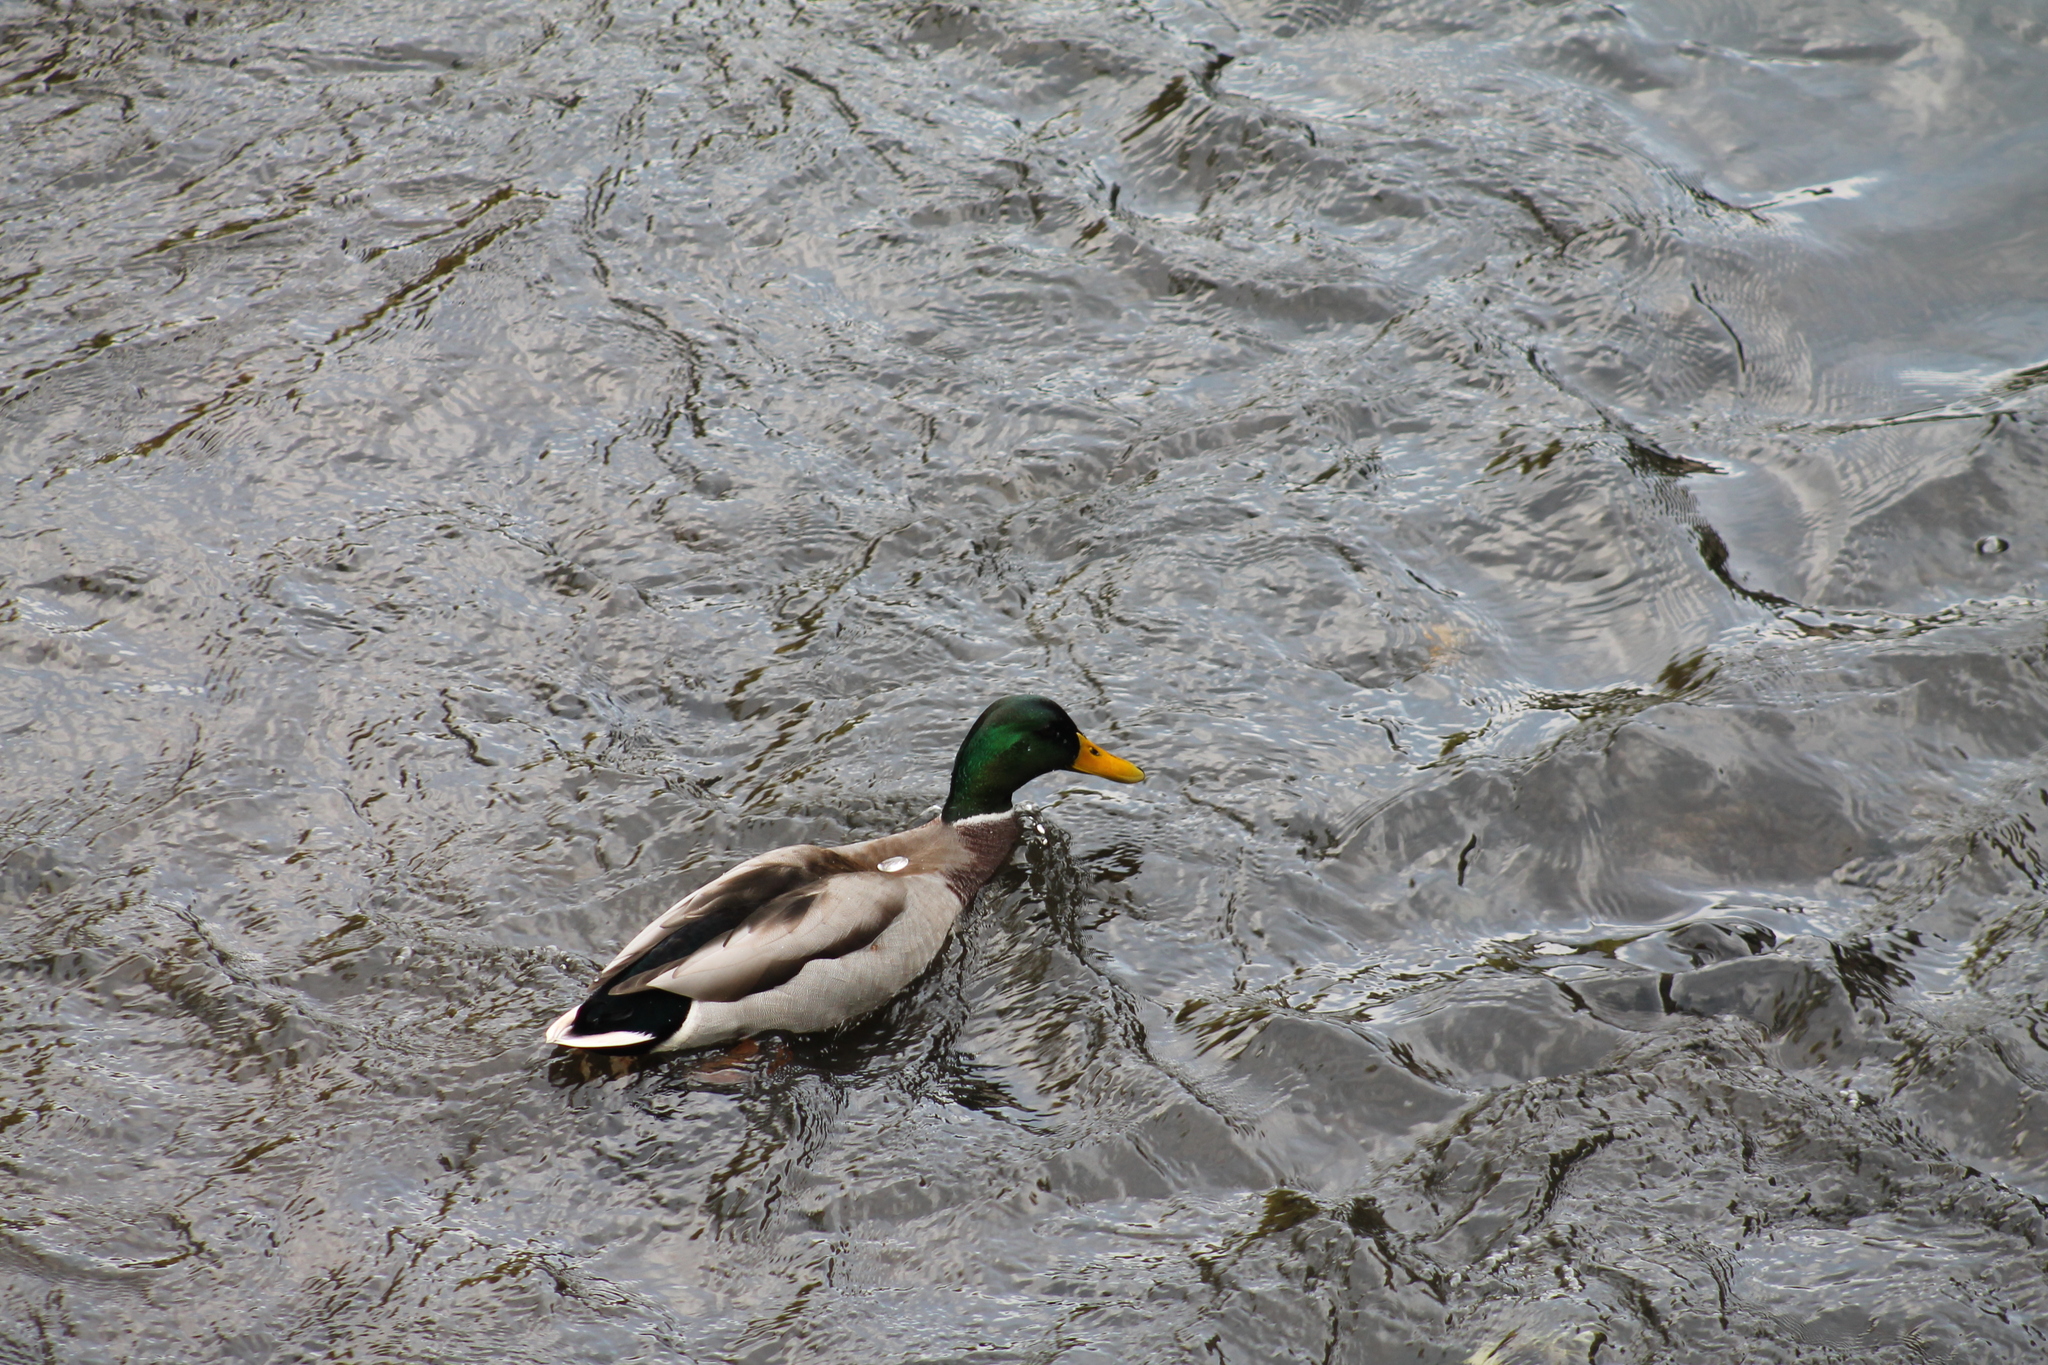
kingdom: Animalia
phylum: Chordata
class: Aves
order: Anseriformes
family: Anatidae
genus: Anas
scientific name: Anas platyrhynchos
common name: Mallard
